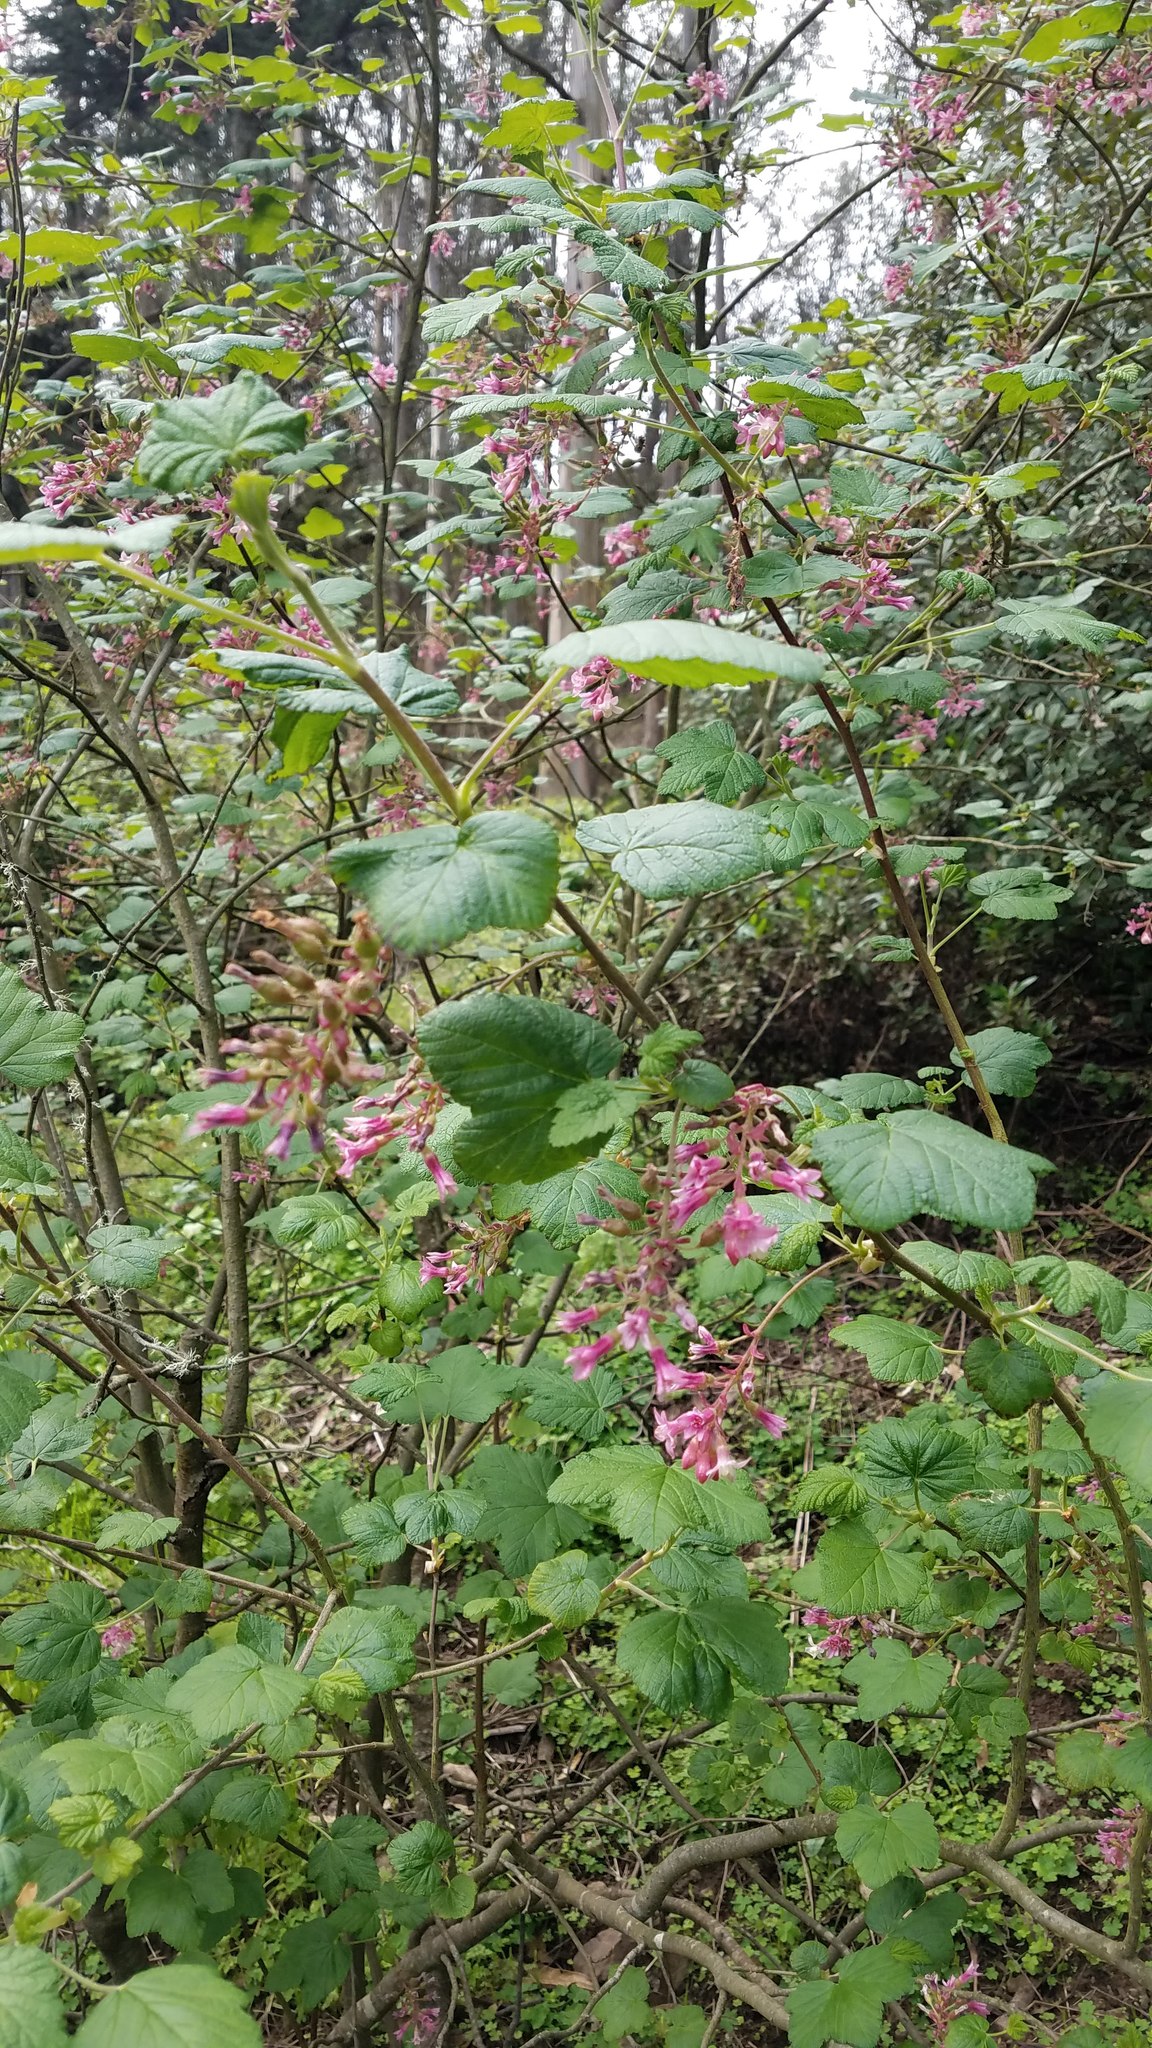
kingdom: Plantae
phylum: Tracheophyta
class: Magnoliopsida
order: Saxifragales
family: Grossulariaceae
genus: Ribes
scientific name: Ribes sanguineum
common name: Flowering currant
